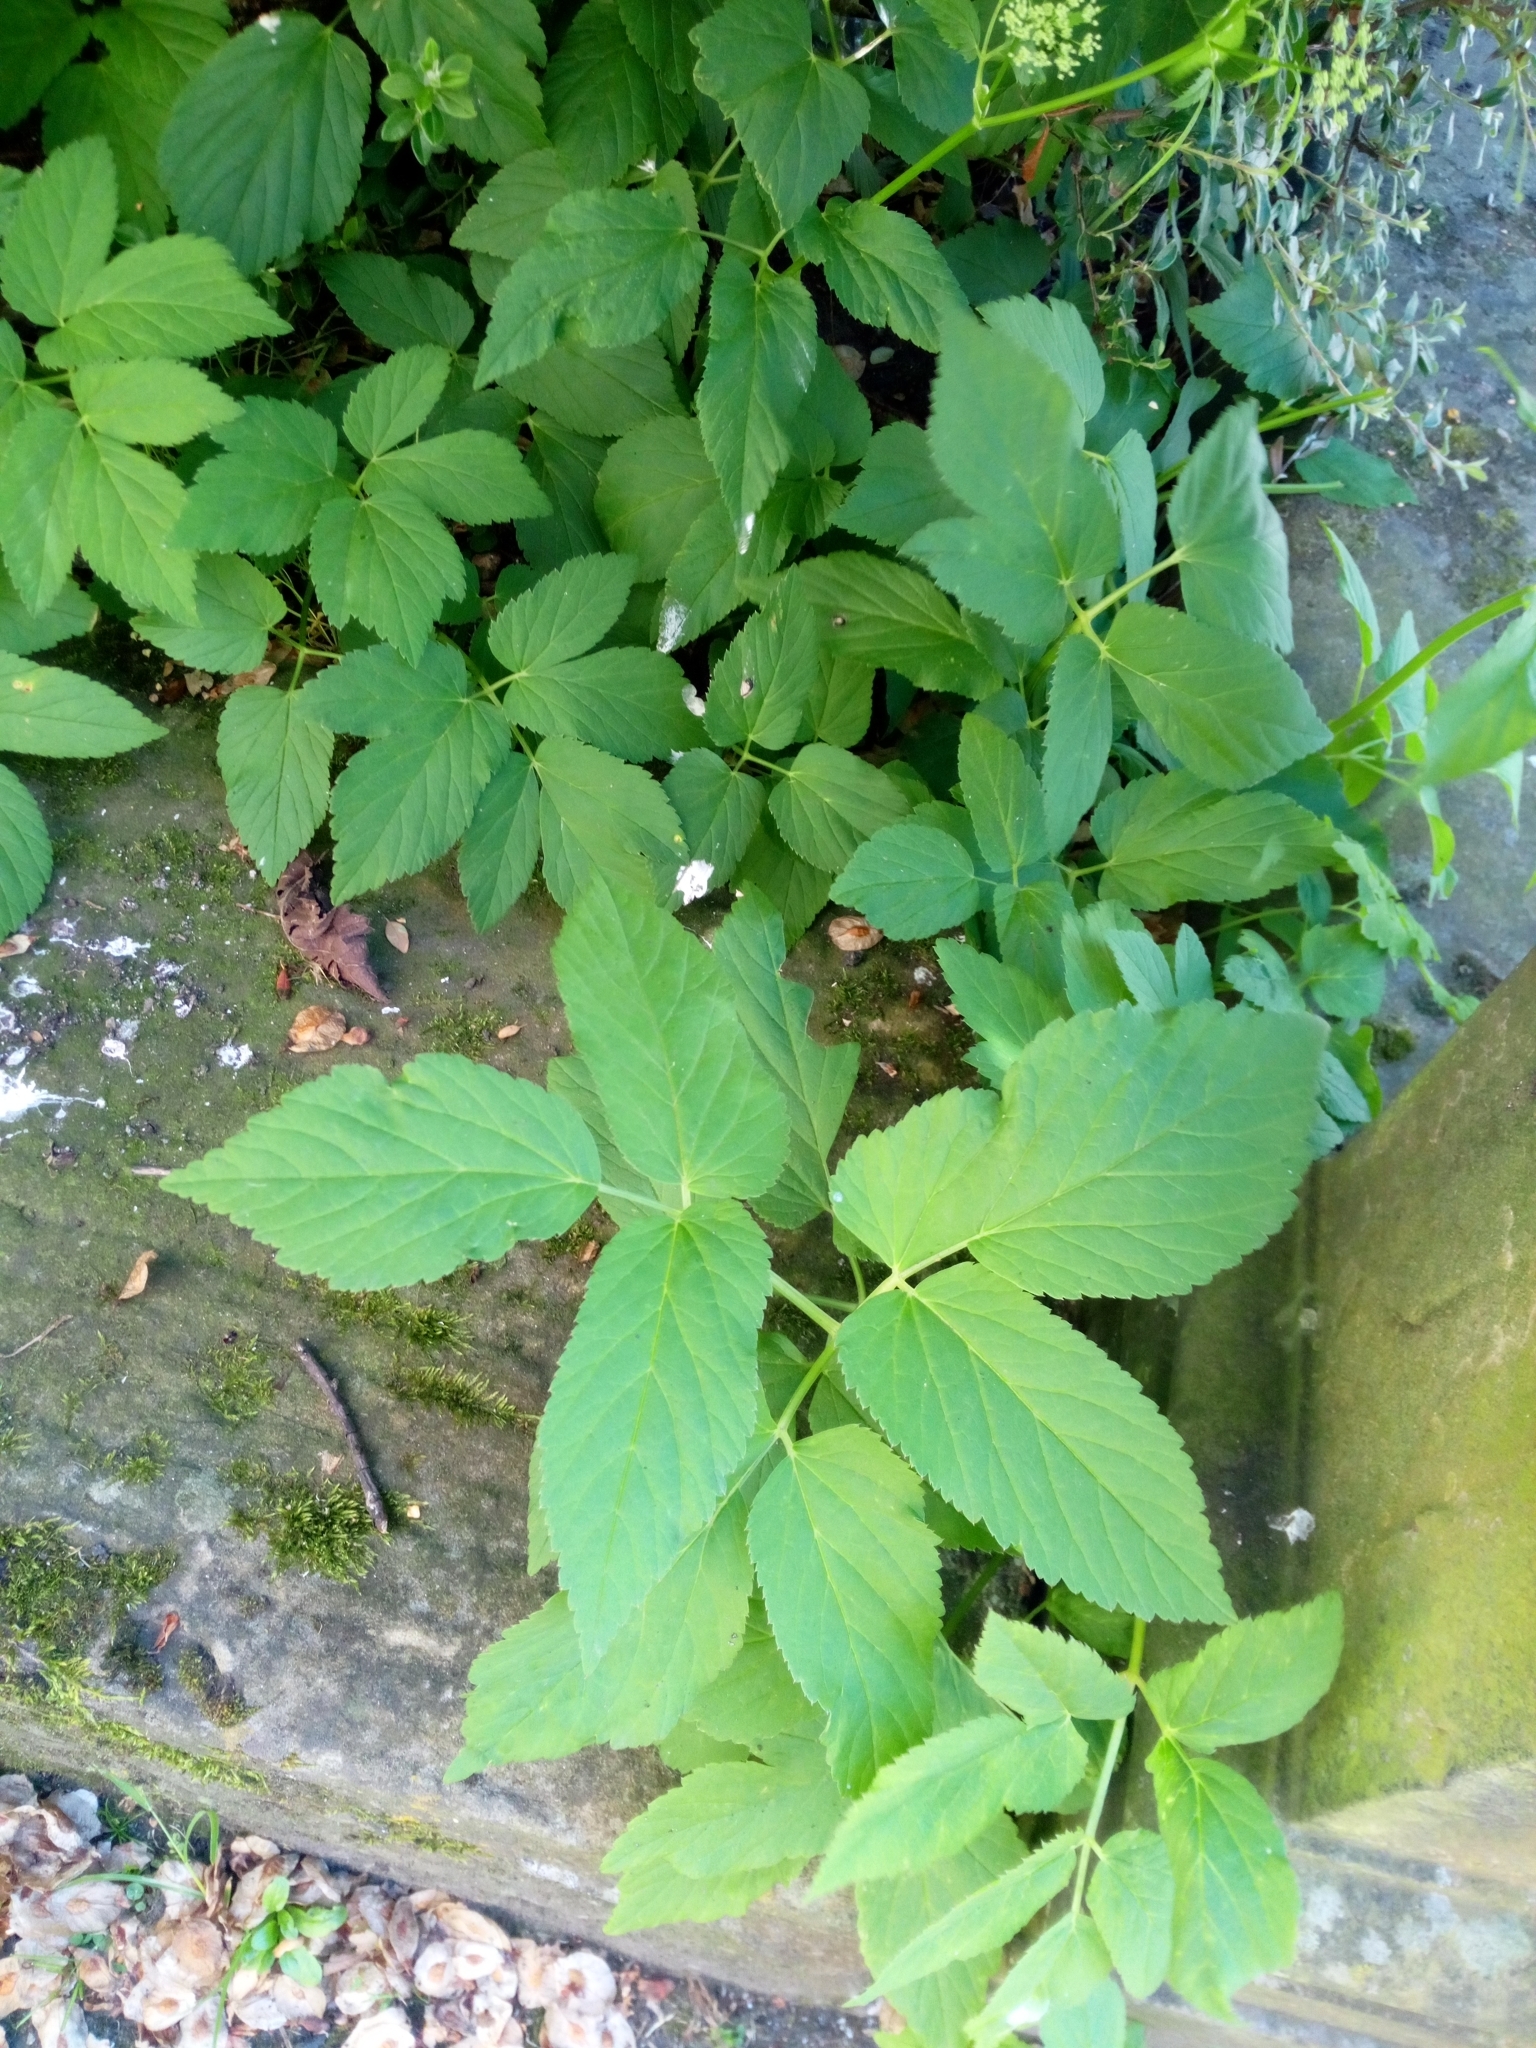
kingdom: Plantae
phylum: Tracheophyta
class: Magnoliopsida
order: Apiales
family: Apiaceae
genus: Aegopodium
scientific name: Aegopodium podagraria
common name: Ground-elder
